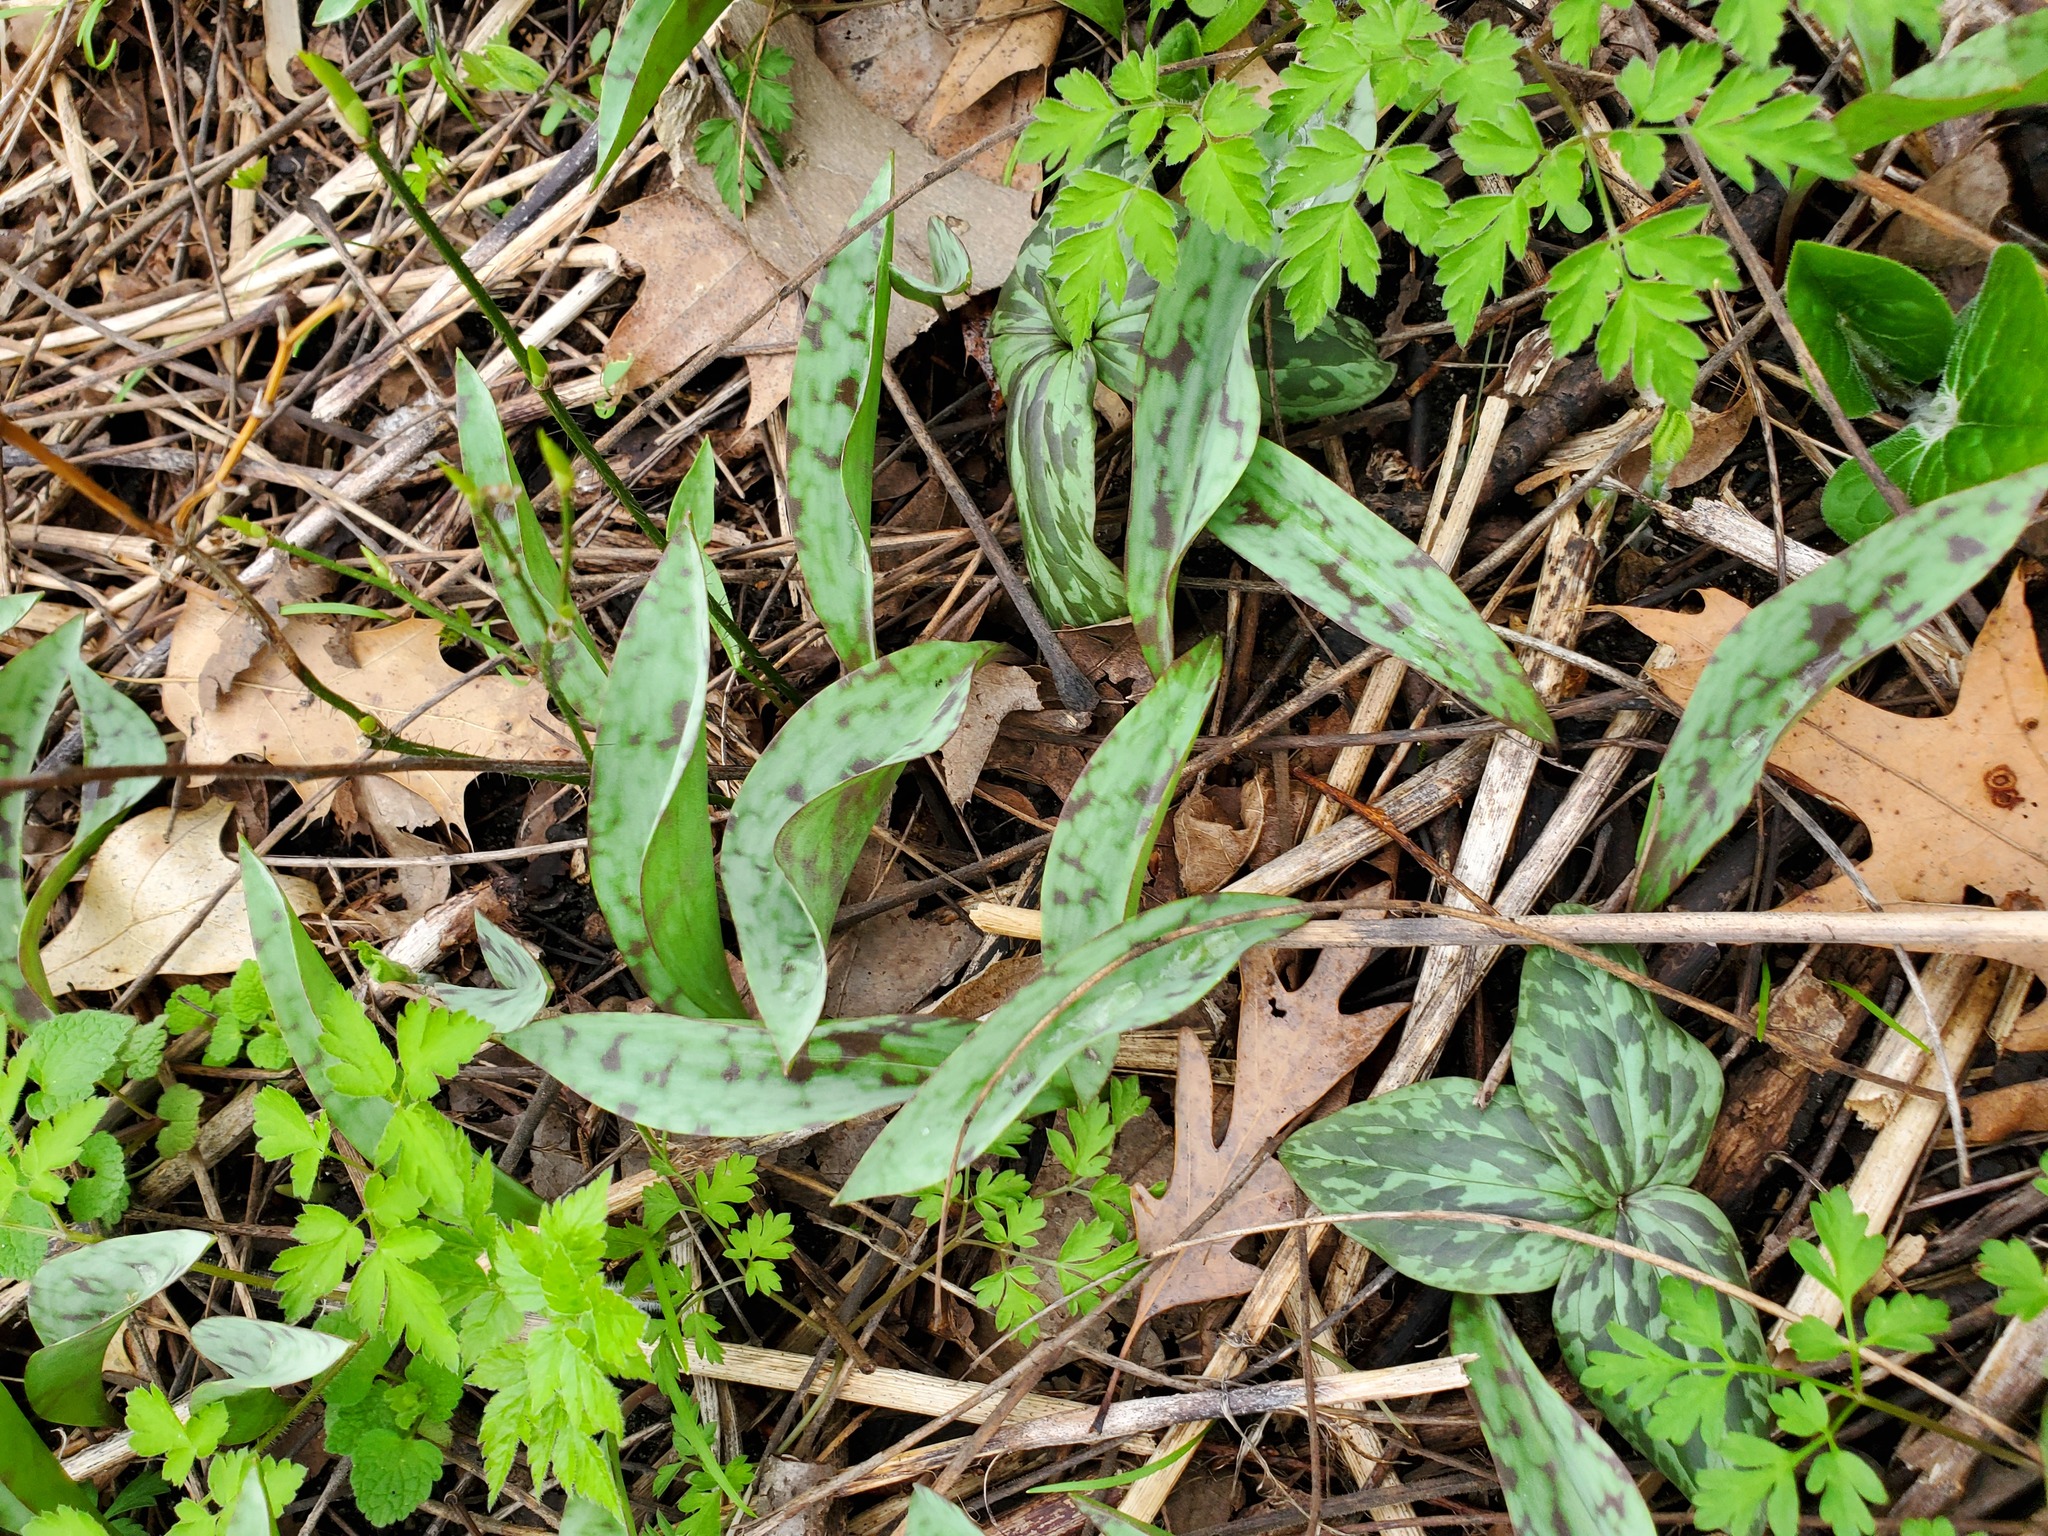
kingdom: Plantae
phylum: Tracheophyta
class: Liliopsida
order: Liliales
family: Liliaceae
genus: Erythronium
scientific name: Erythronium albidum
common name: White trout-lily
